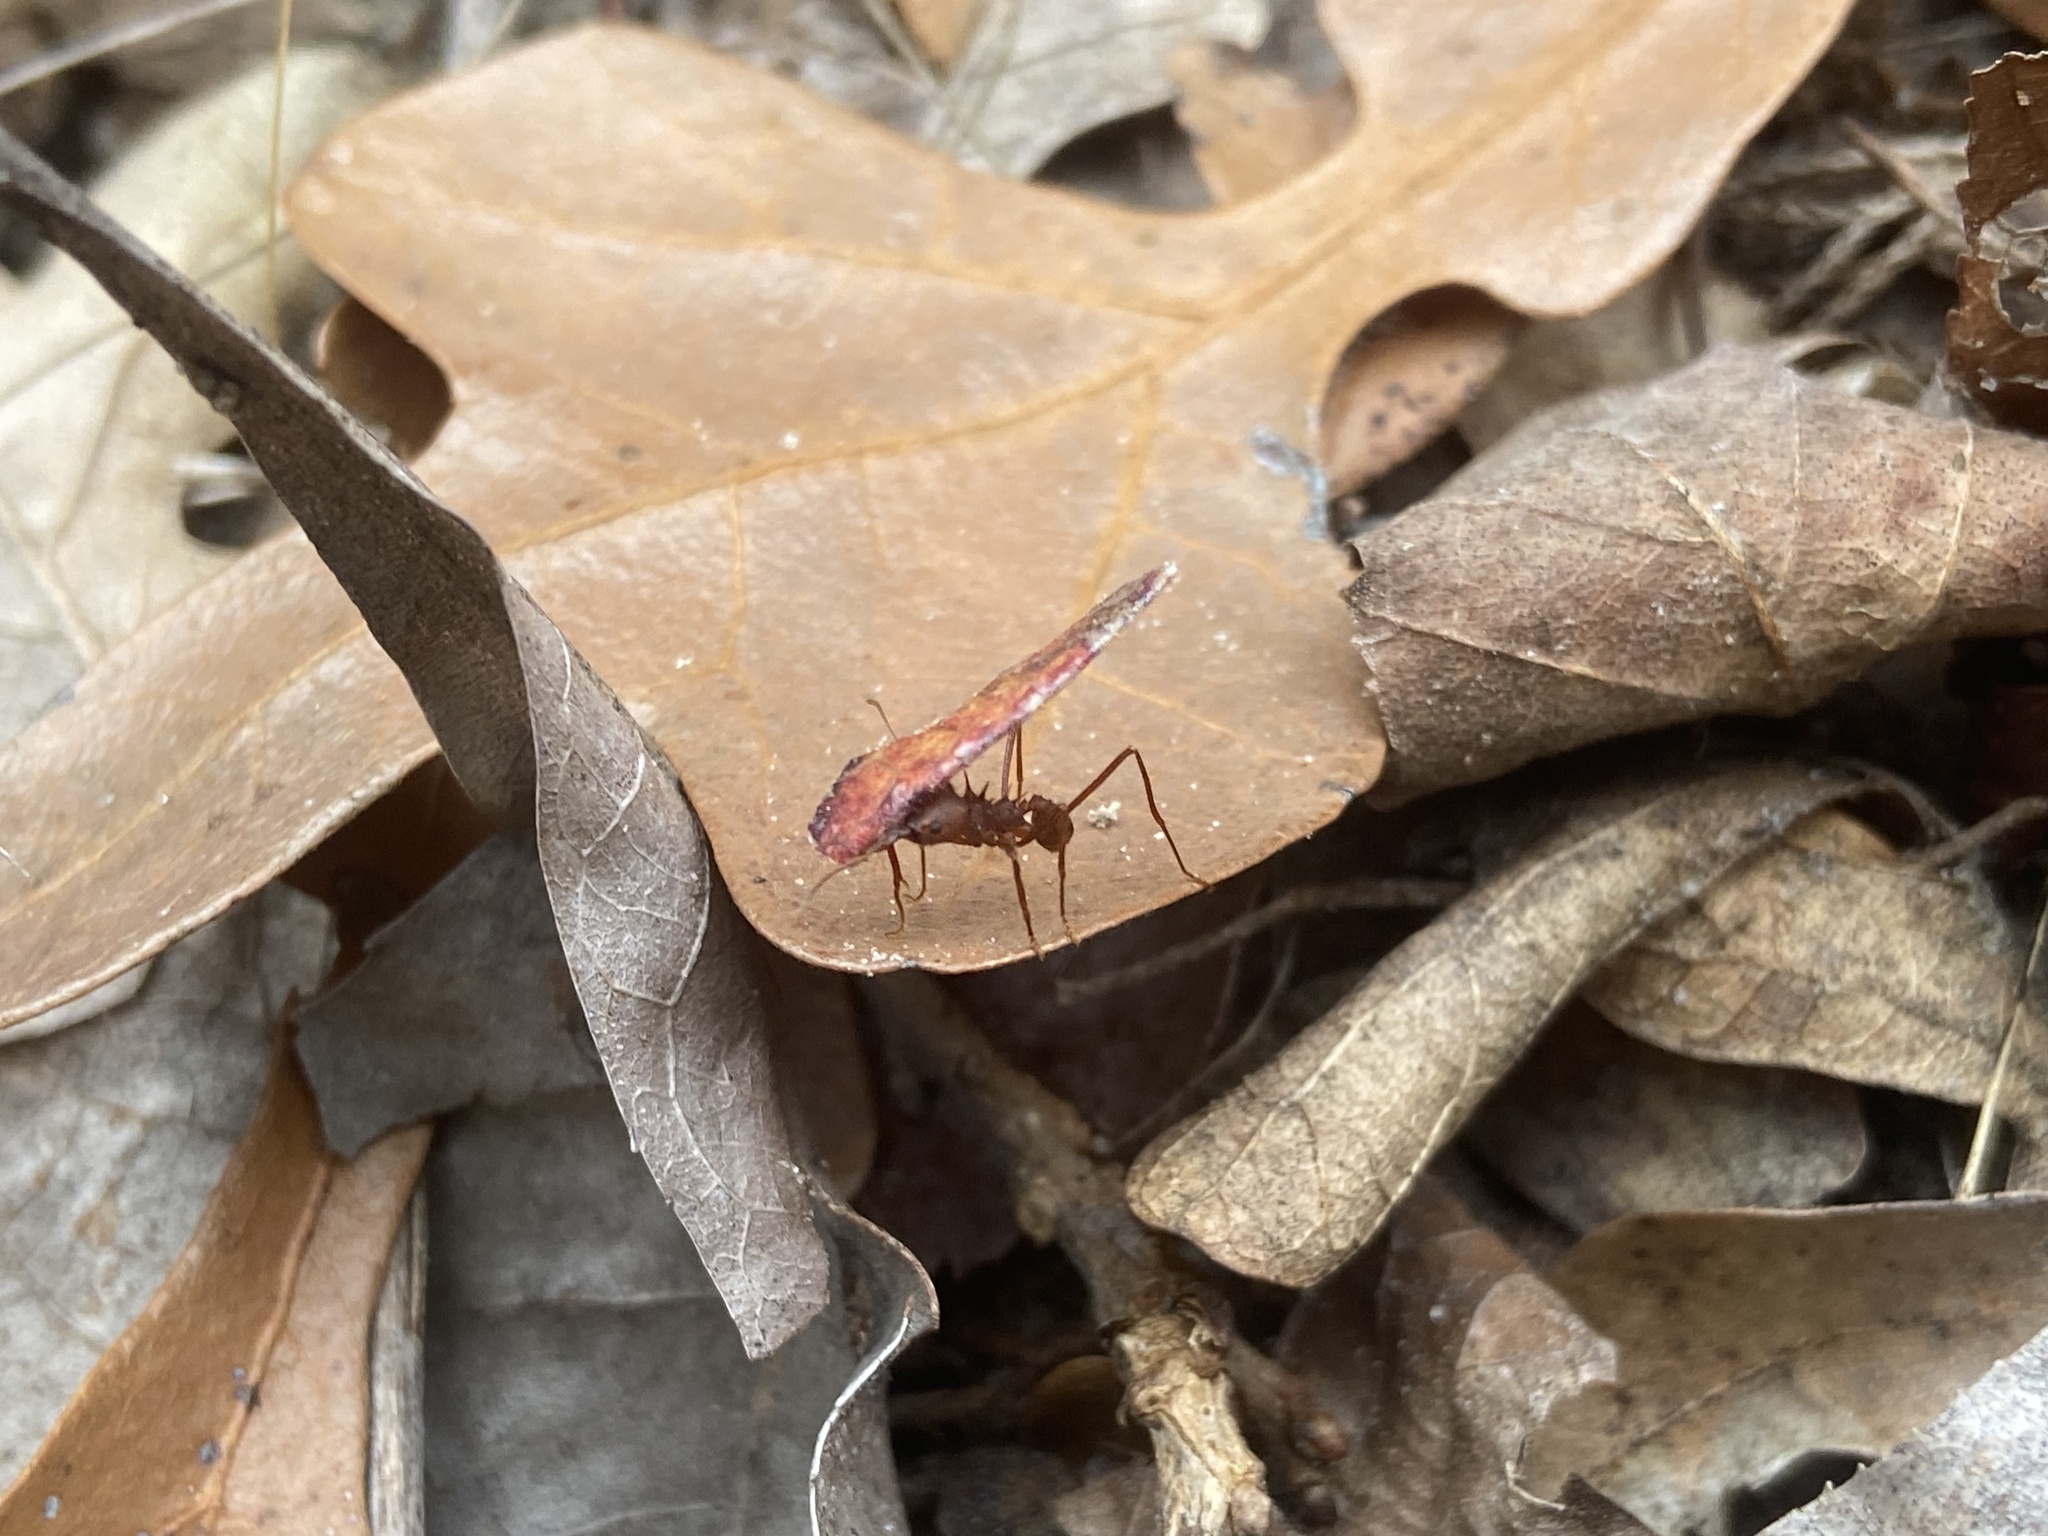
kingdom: Animalia
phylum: Arthropoda
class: Insecta
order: Hymenoptera
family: Formicidae
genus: Atta
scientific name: Atta texana
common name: Texas leafcutting ant
